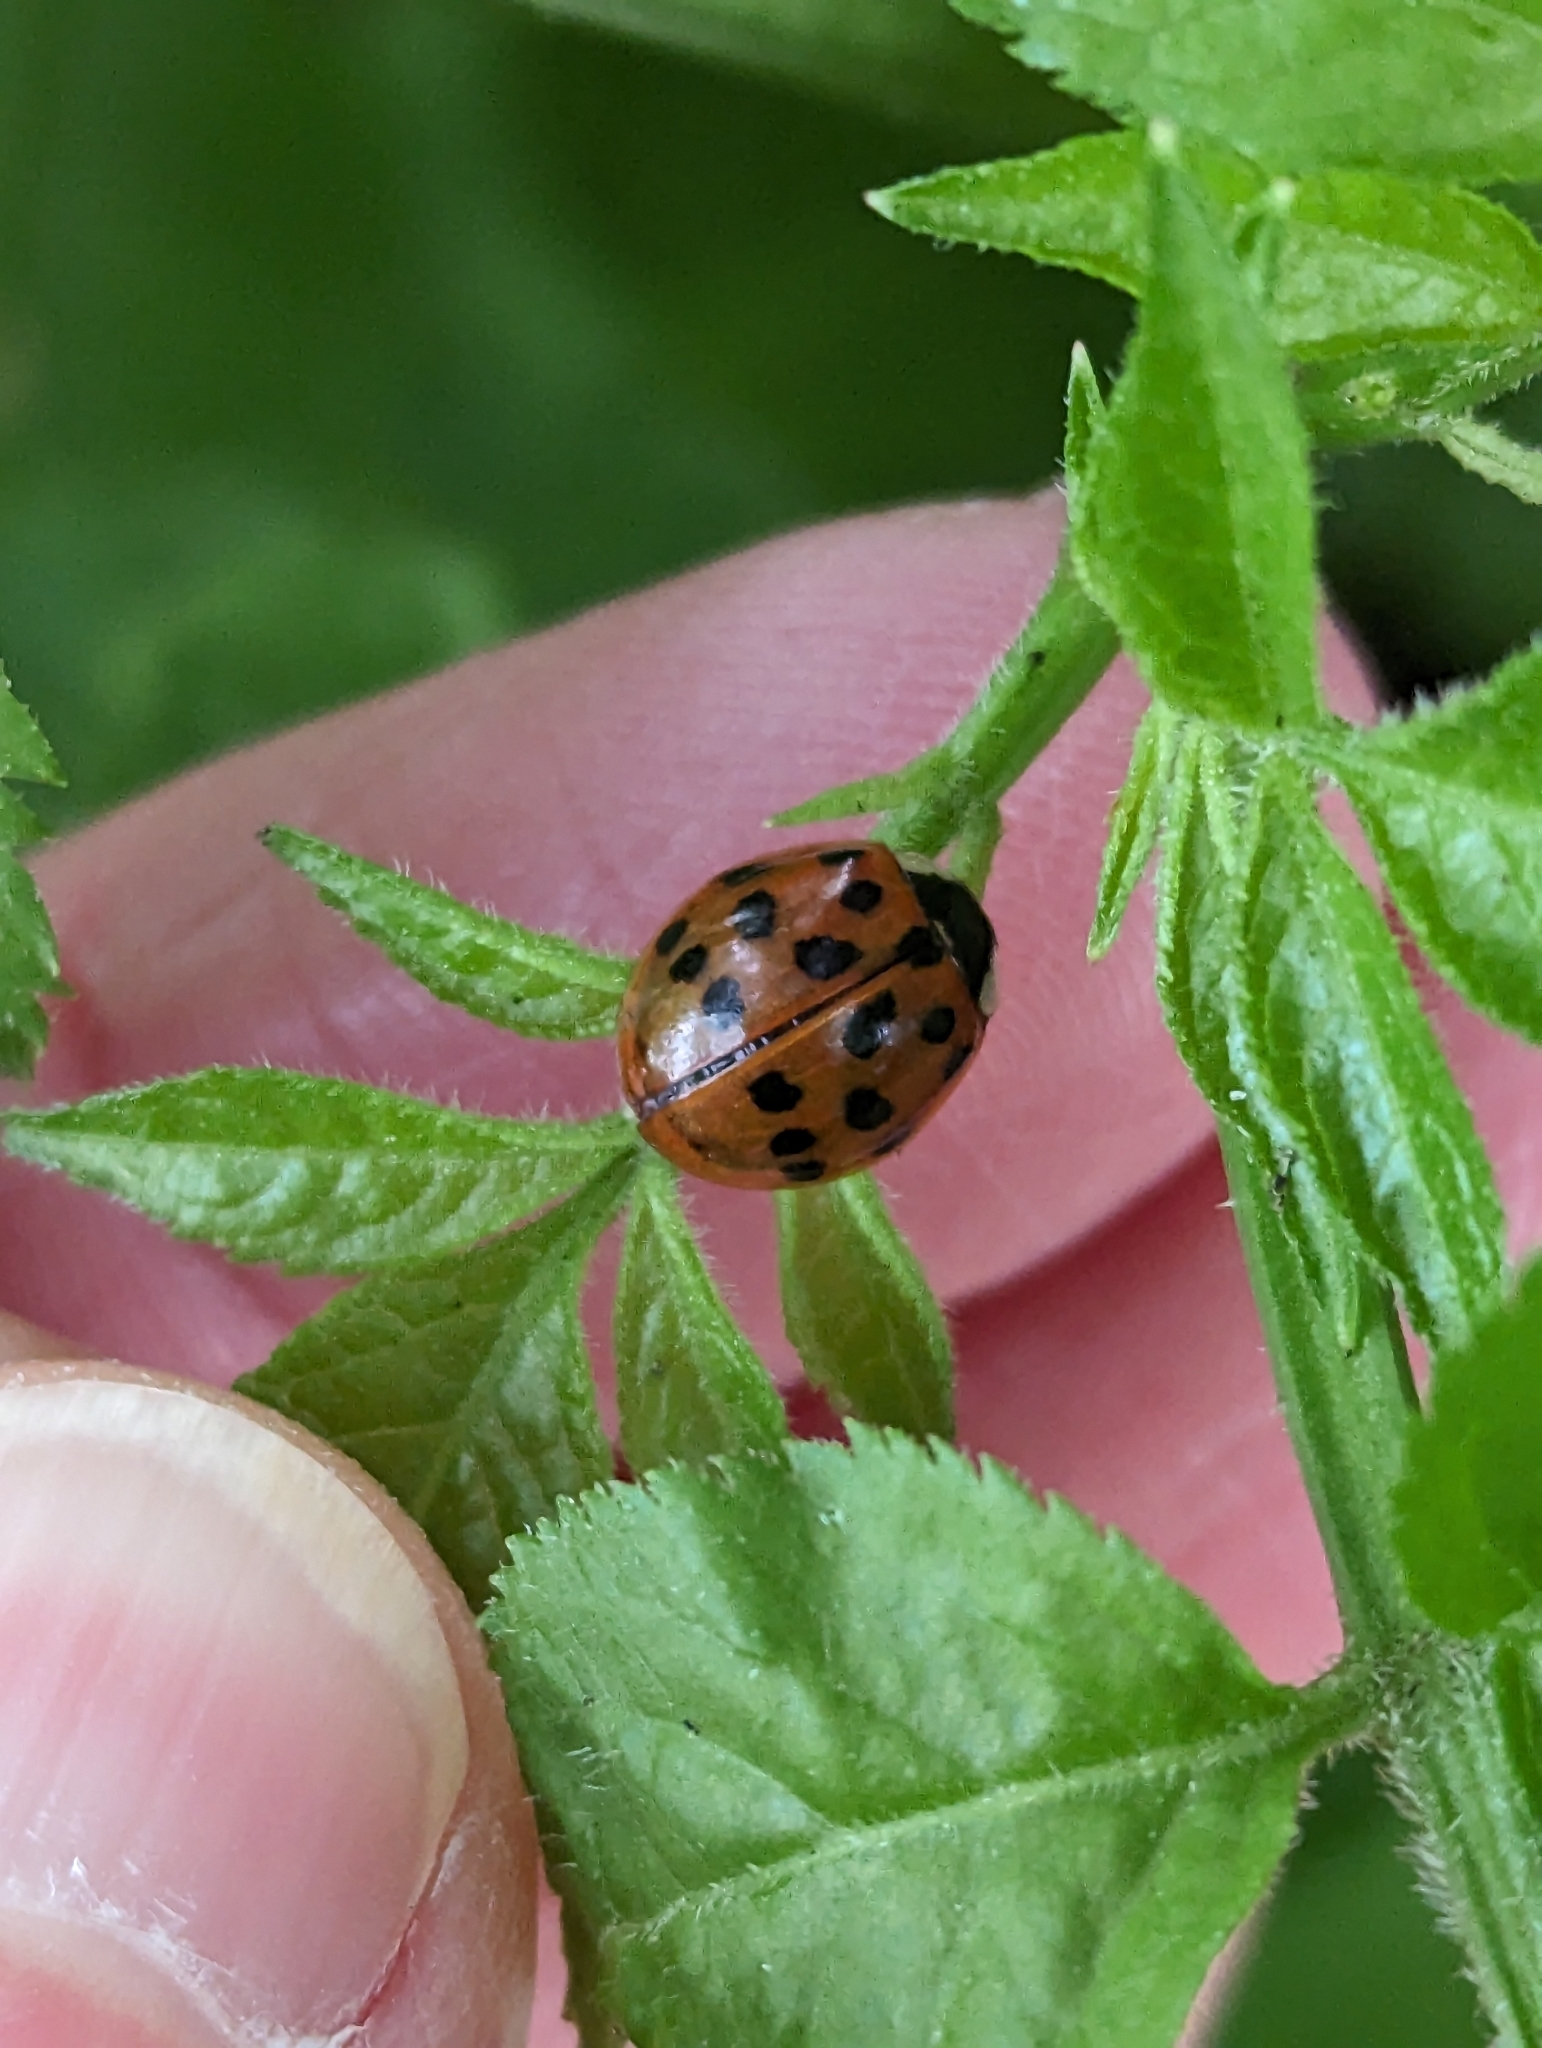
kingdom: Animalia
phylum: Arthropoda
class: Insecta
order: Coleoptera
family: Coccinellidae
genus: Harmonia
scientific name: Harmonia axyridis
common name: Harlequin ladybird
